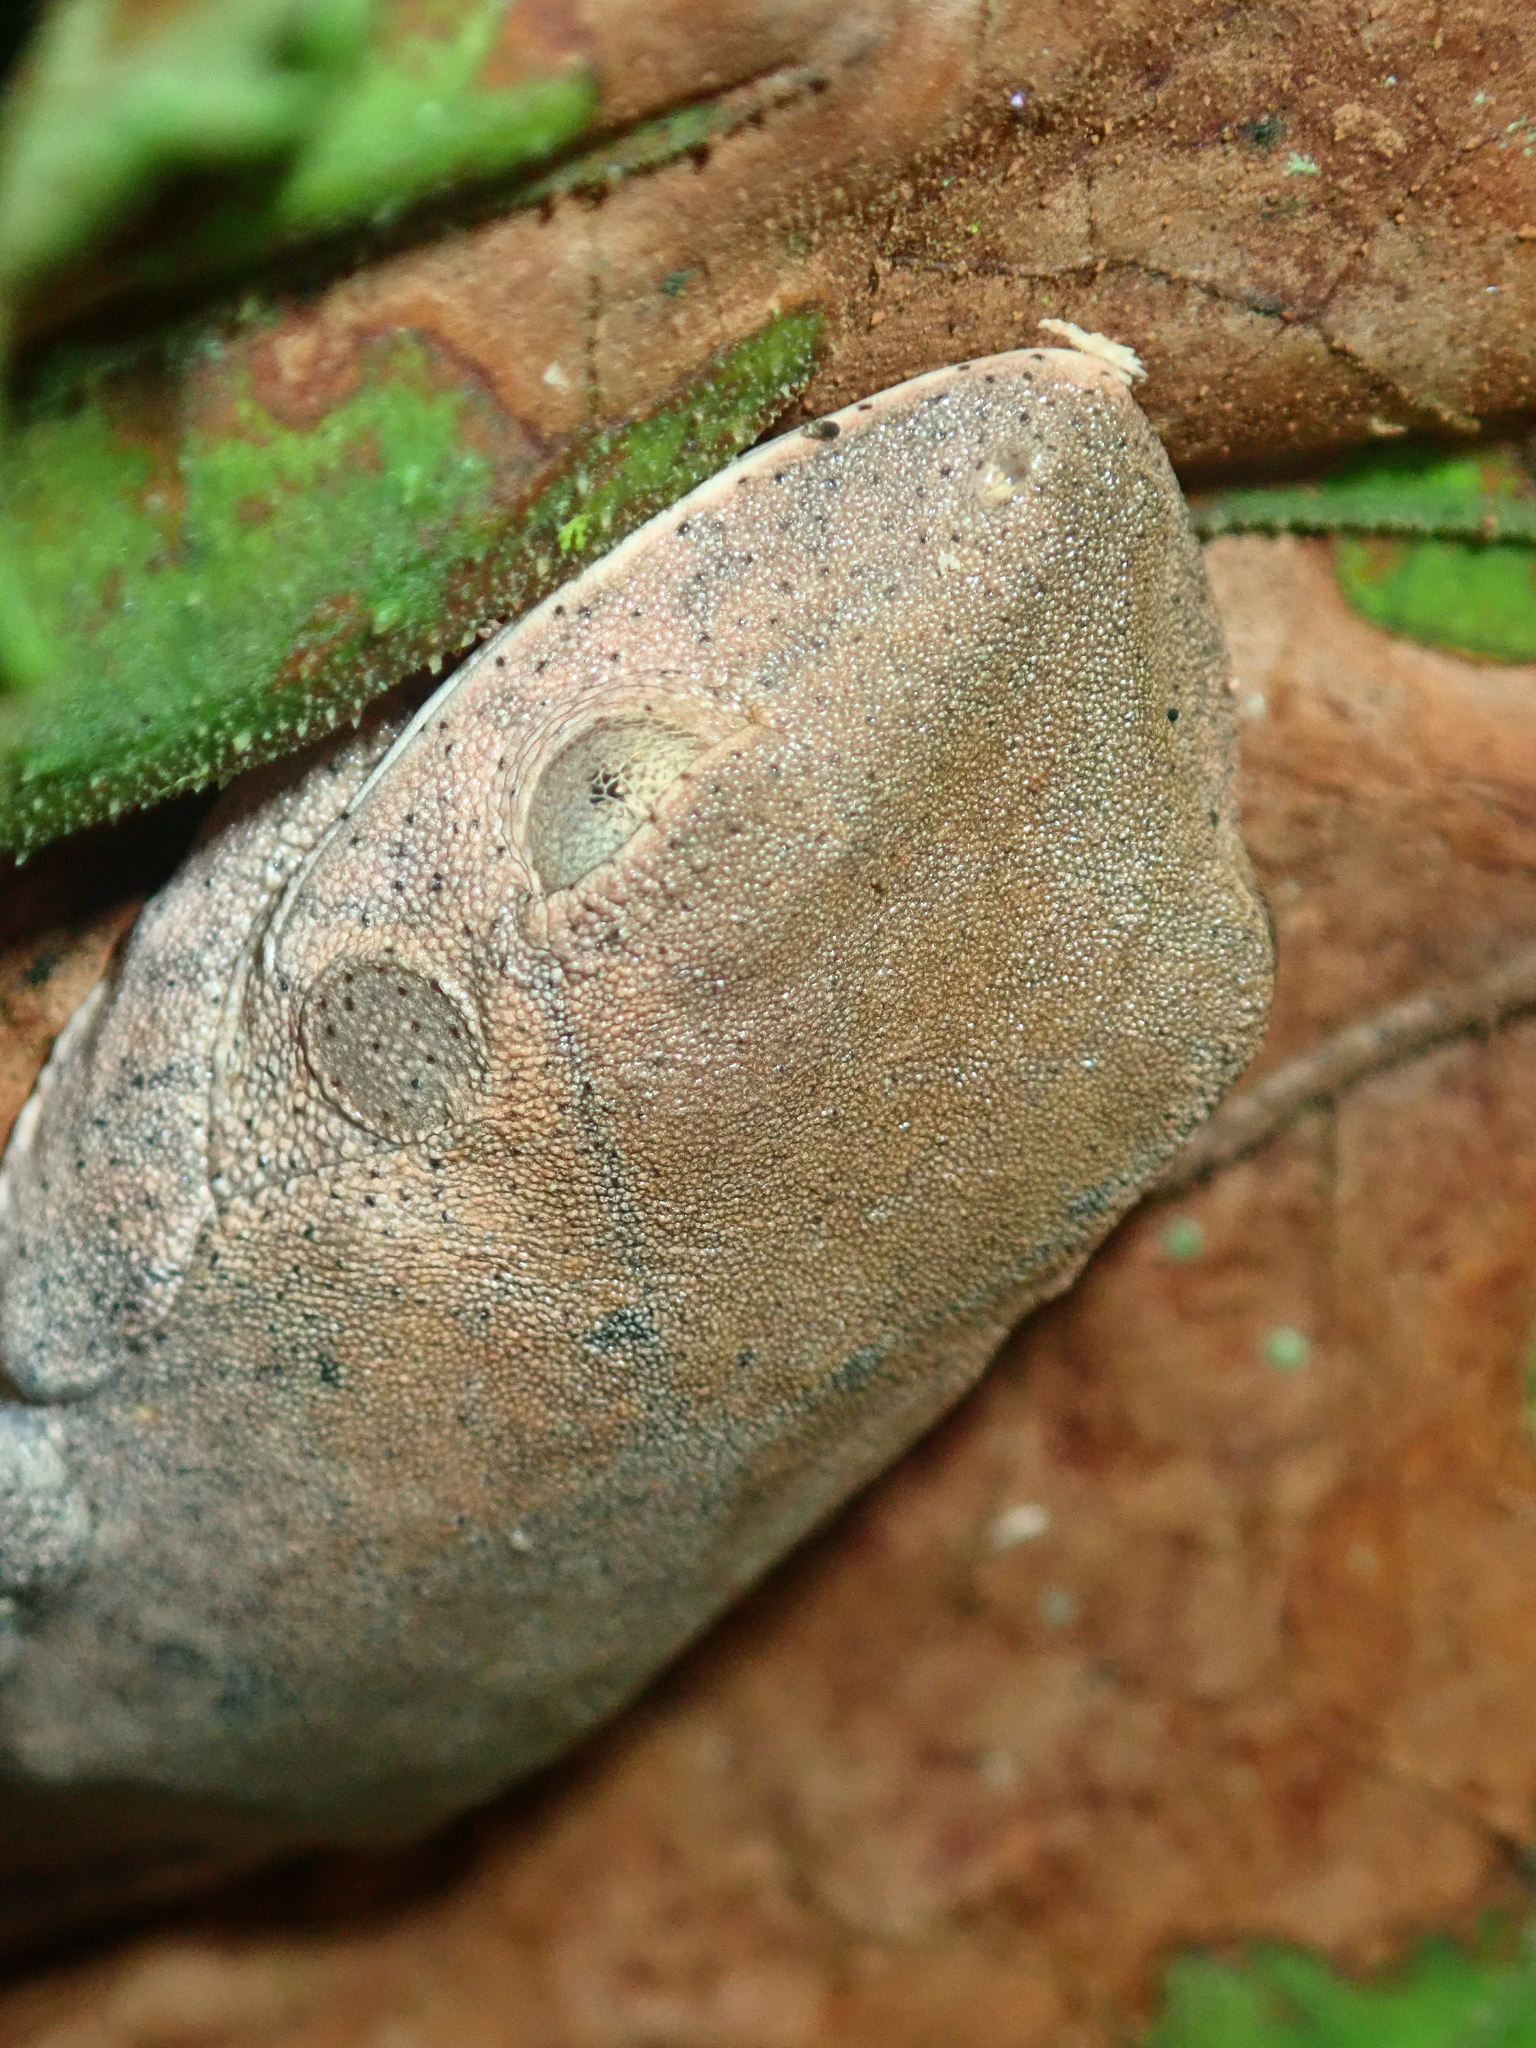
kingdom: Animalia
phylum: Chordata
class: Amphibia
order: Anura
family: Hylidae
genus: Boana
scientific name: Boana semilineata
